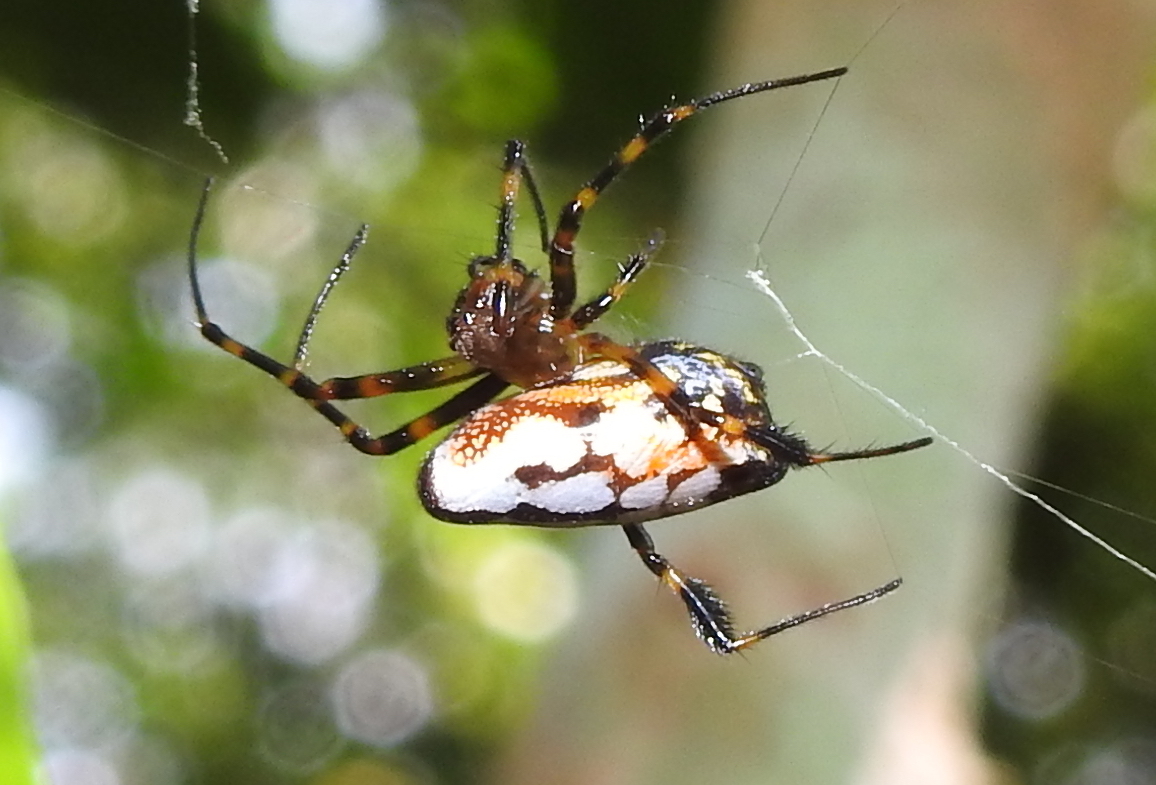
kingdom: Animalia
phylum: Arthropoda
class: Arachnida
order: Araneae
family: Tetragnathidae
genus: Leucauge
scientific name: Leucauge fastigata
